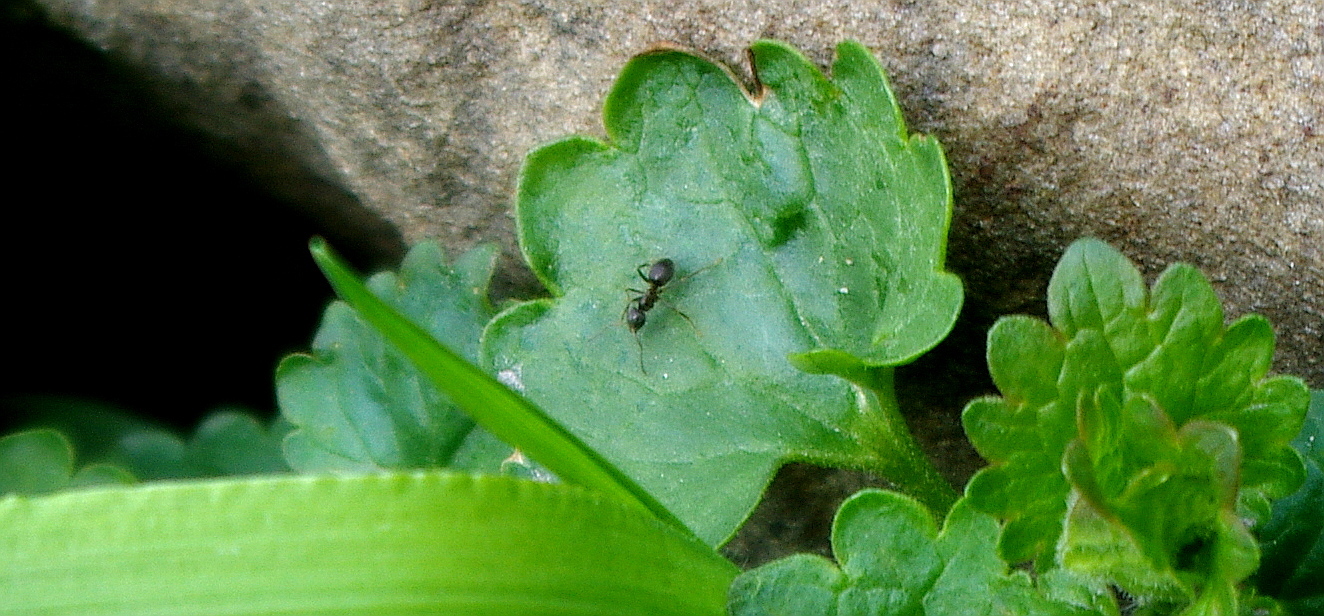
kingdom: Animalia
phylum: Arthropoda
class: Insecta
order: Hymenoptera
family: Formicidae
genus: Lasius
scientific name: Lasius
